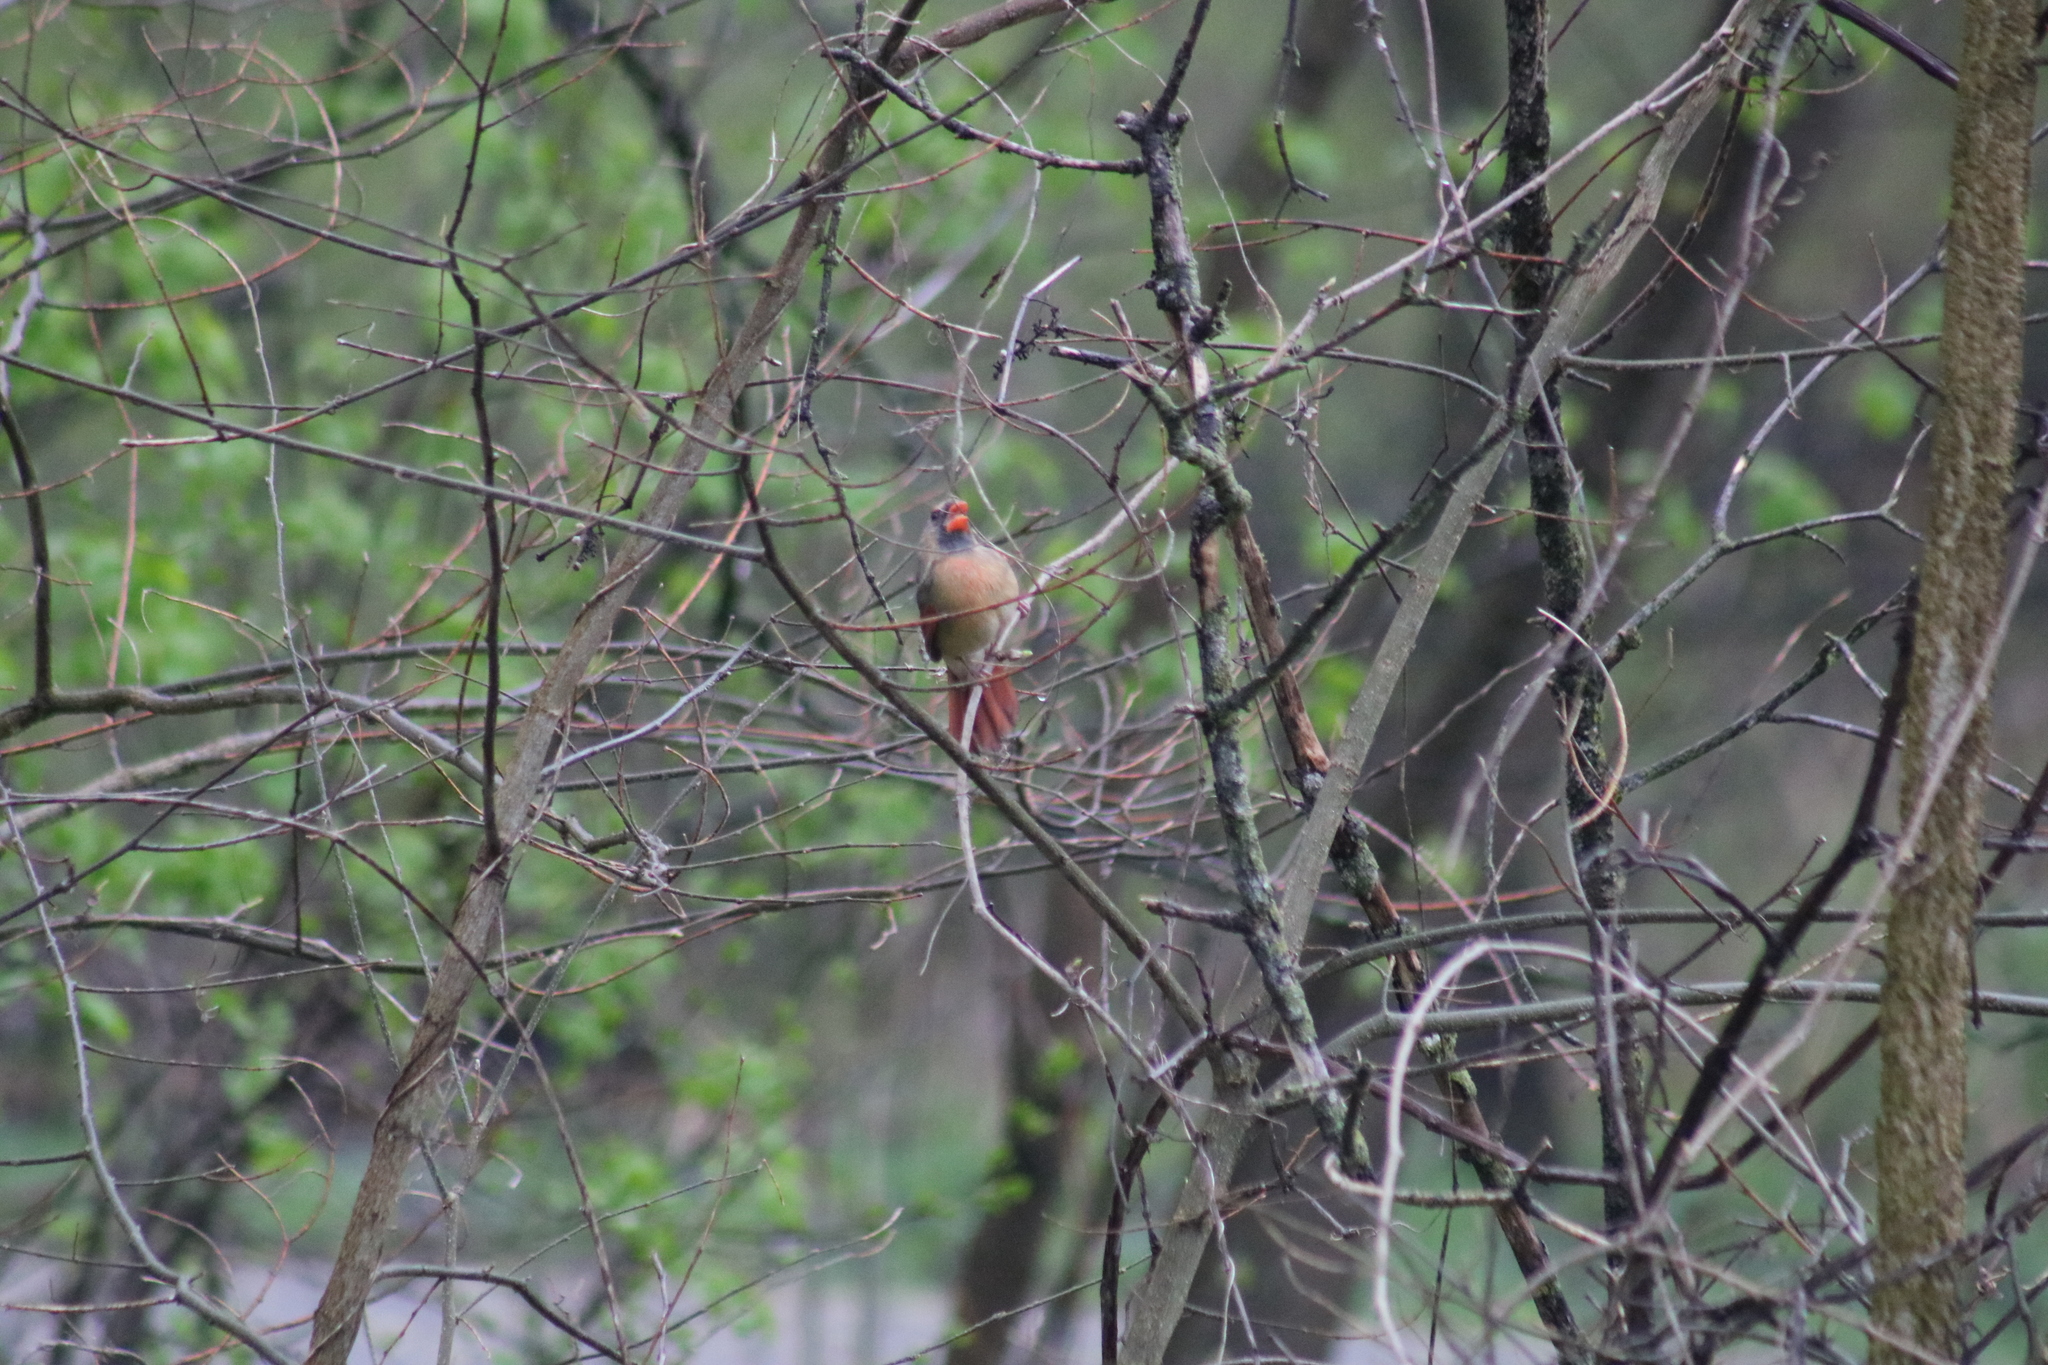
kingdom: Animalia
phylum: Chordata
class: Aves
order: Passeriformes
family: Cardinalidae
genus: Cardinalis
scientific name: Cardinalis cardinalis
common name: Northern cardinal
